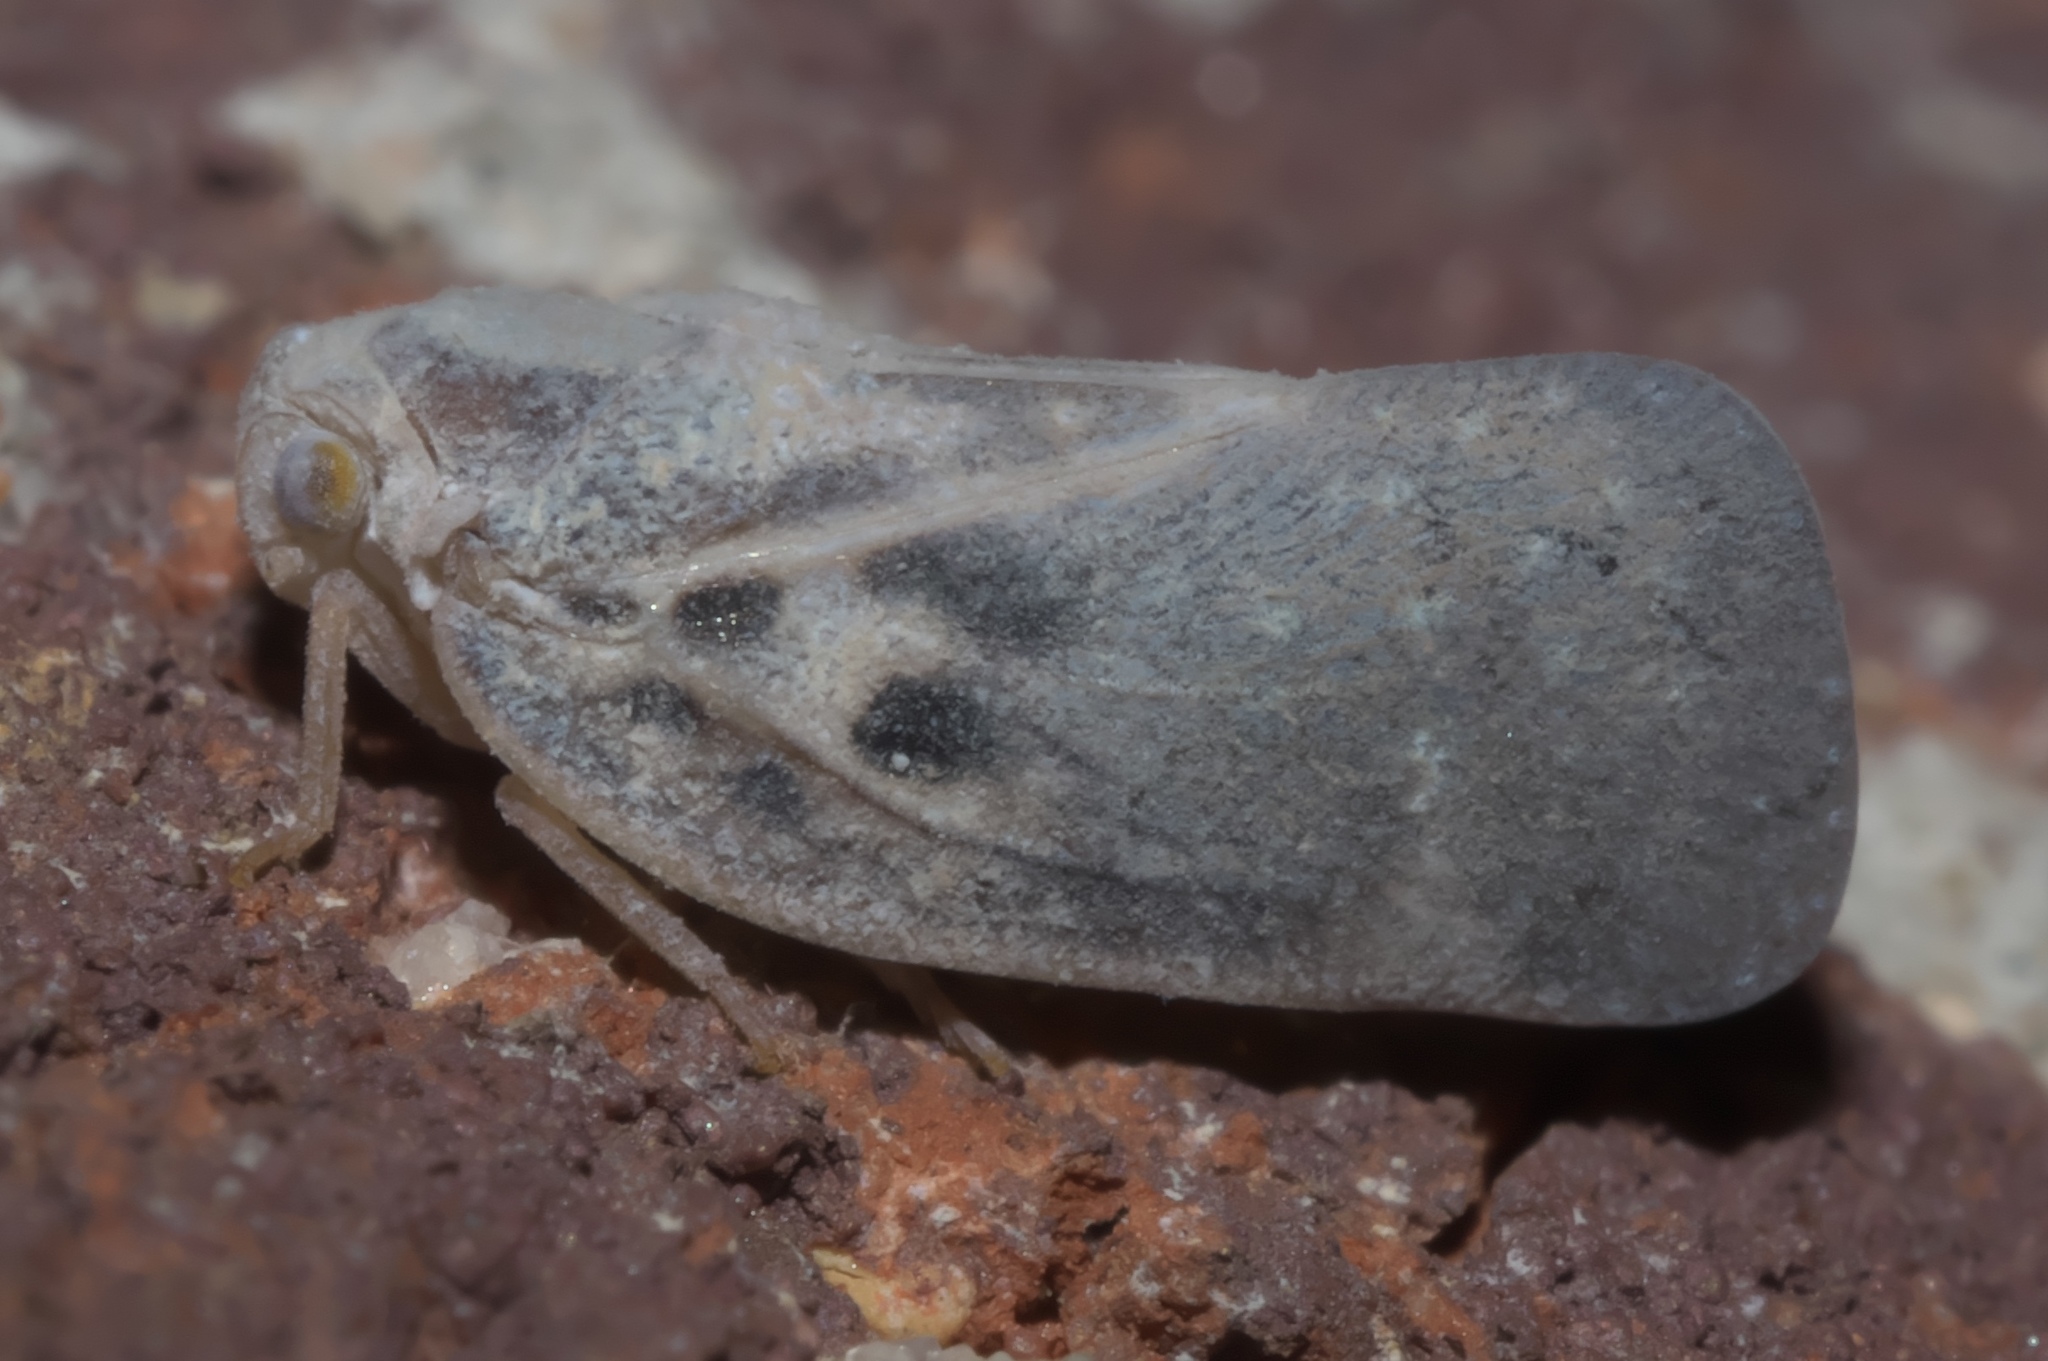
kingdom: Animalia
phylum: Arthropoda
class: Insecta
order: Hemiptera
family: Flatidae
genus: Metcalfa
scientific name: Metcalfa pruinosa
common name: Citrus flatid planthopper
